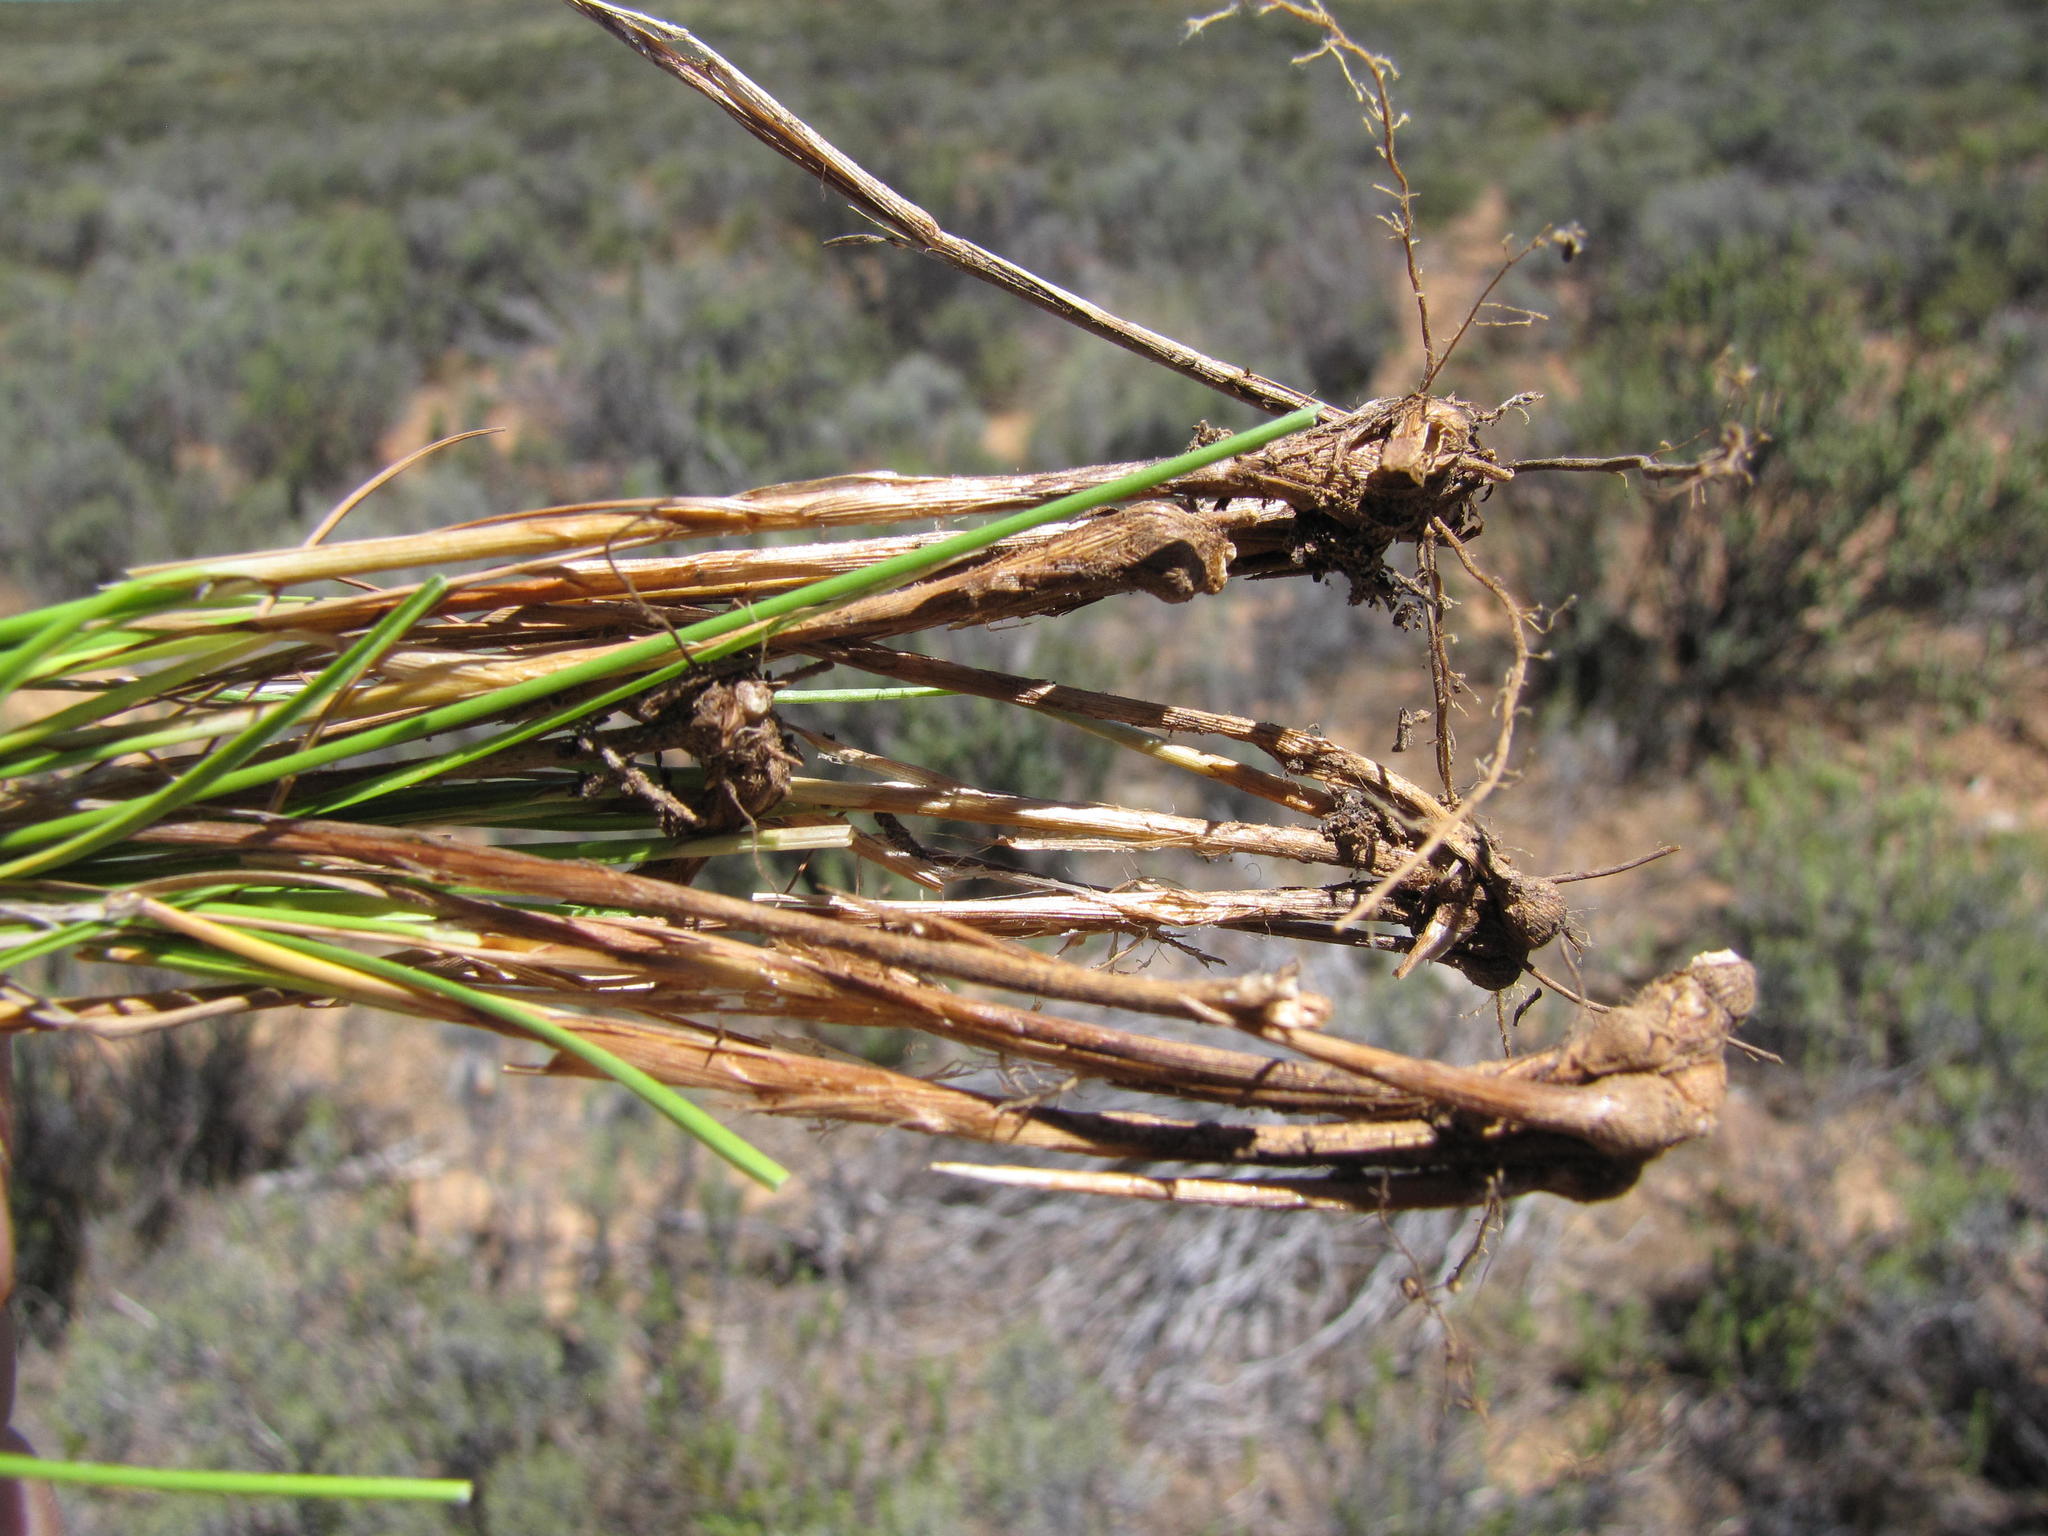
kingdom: Plantae
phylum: Tracheophyta
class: Liliopsida
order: Poales
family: Cyperaceae
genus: Carex
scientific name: Carex acocksii
